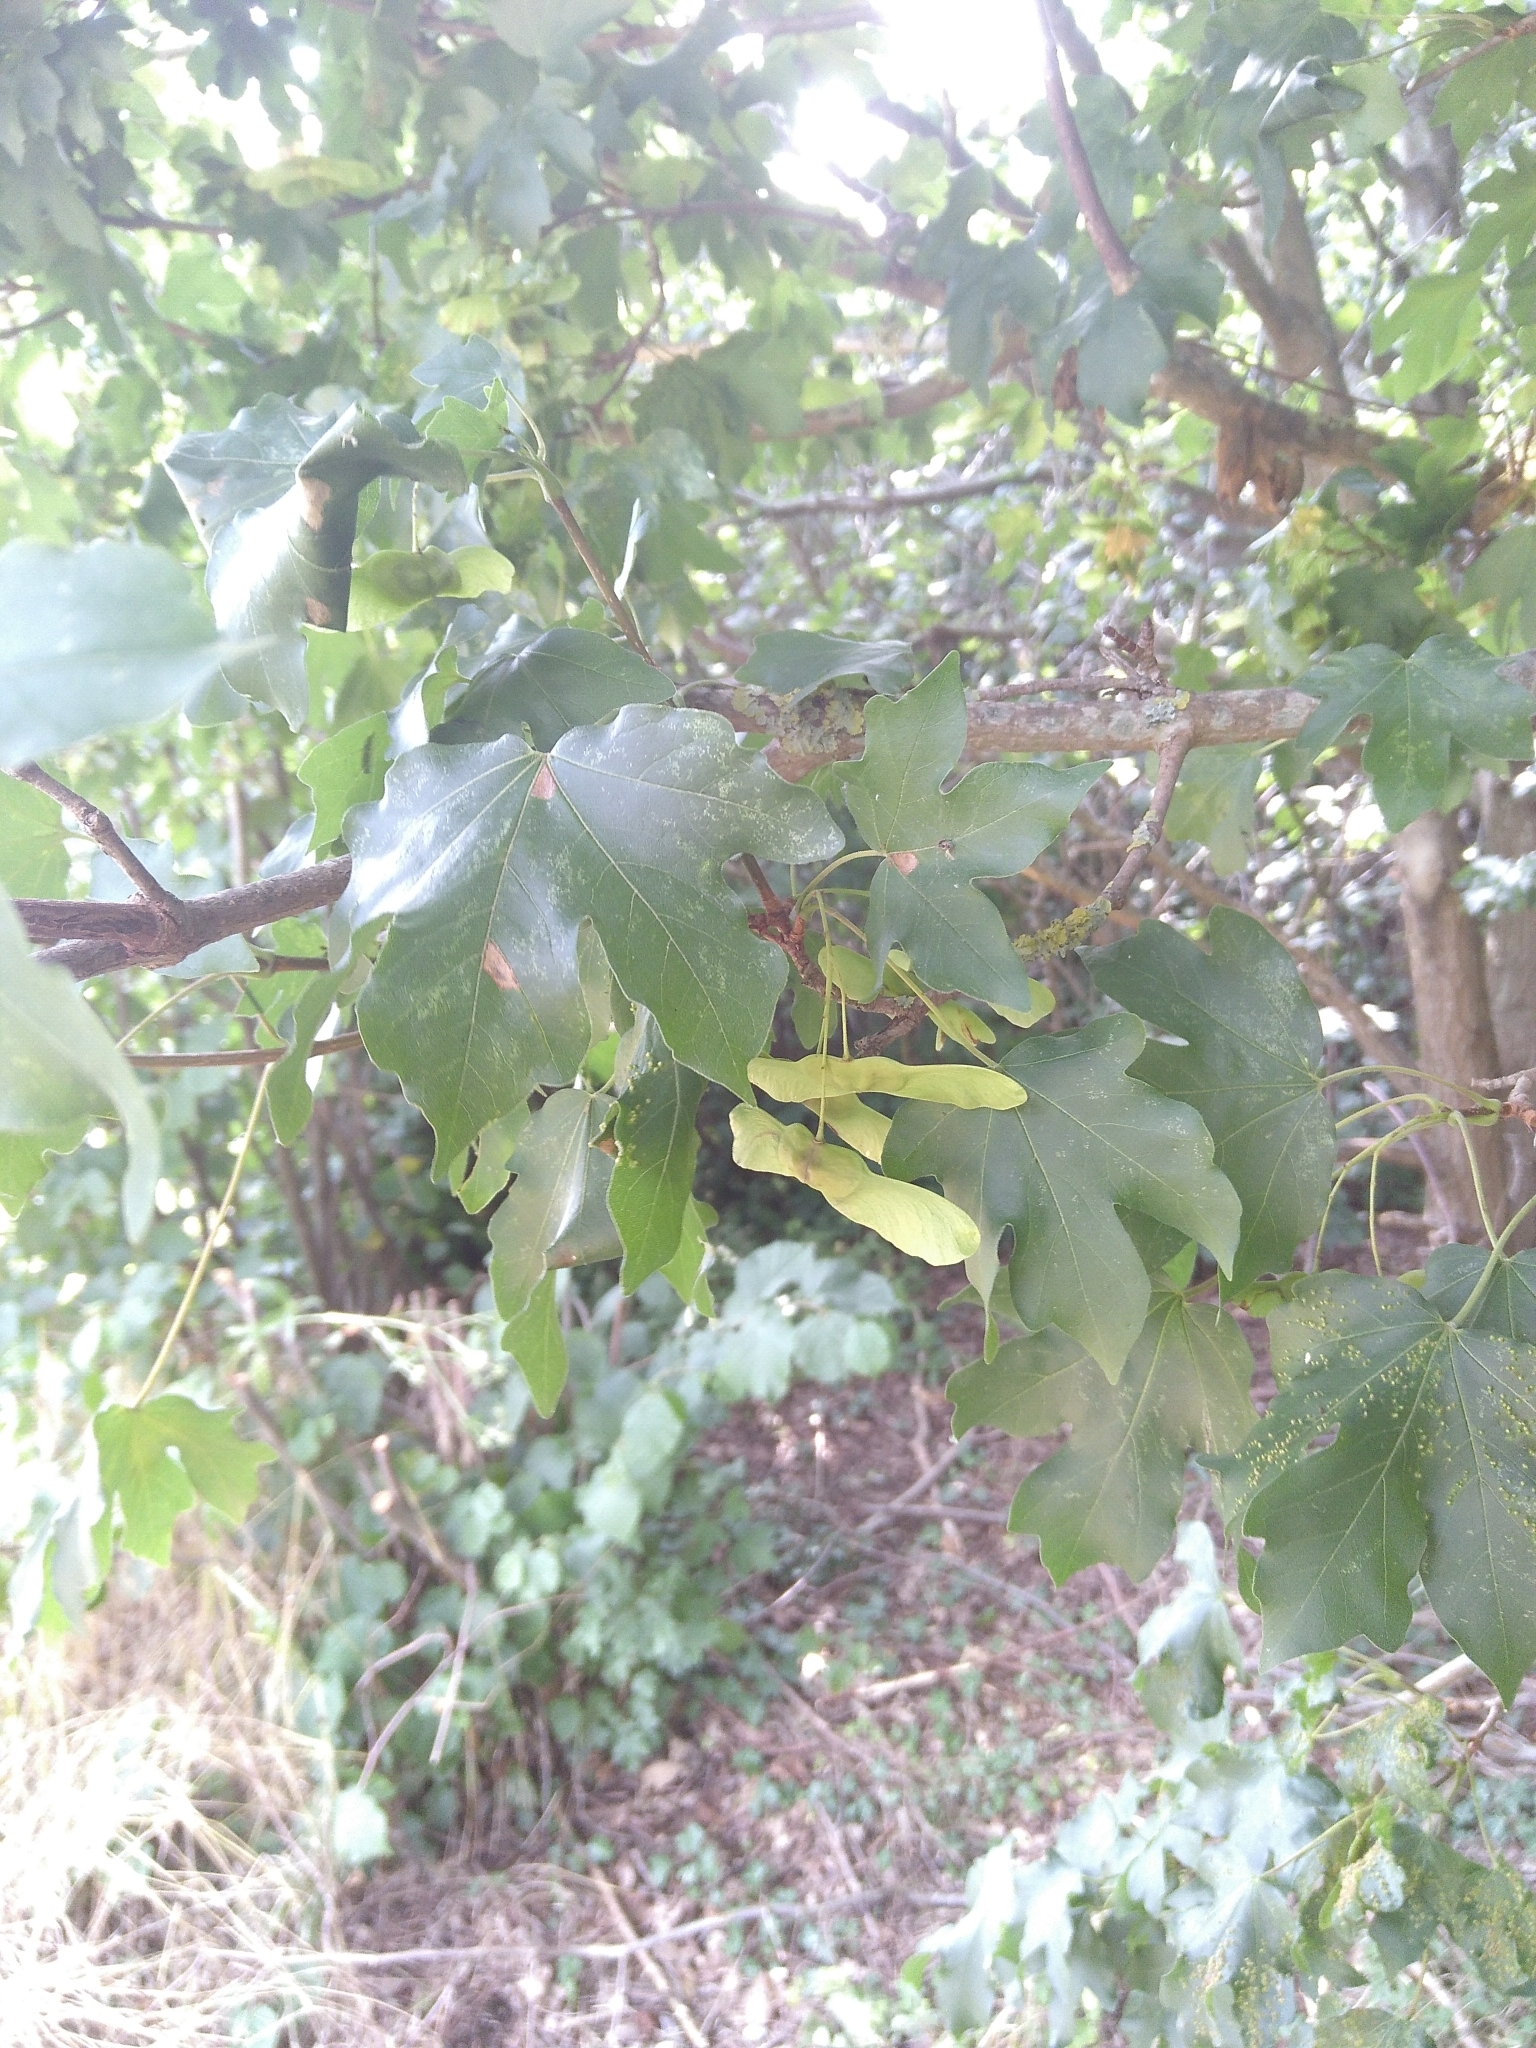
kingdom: Plantae
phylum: Tracheophyta
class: Magnoliopsida
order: Sapindales
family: Sapindaceae
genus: Acer
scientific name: Acer campestre
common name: Field maple
